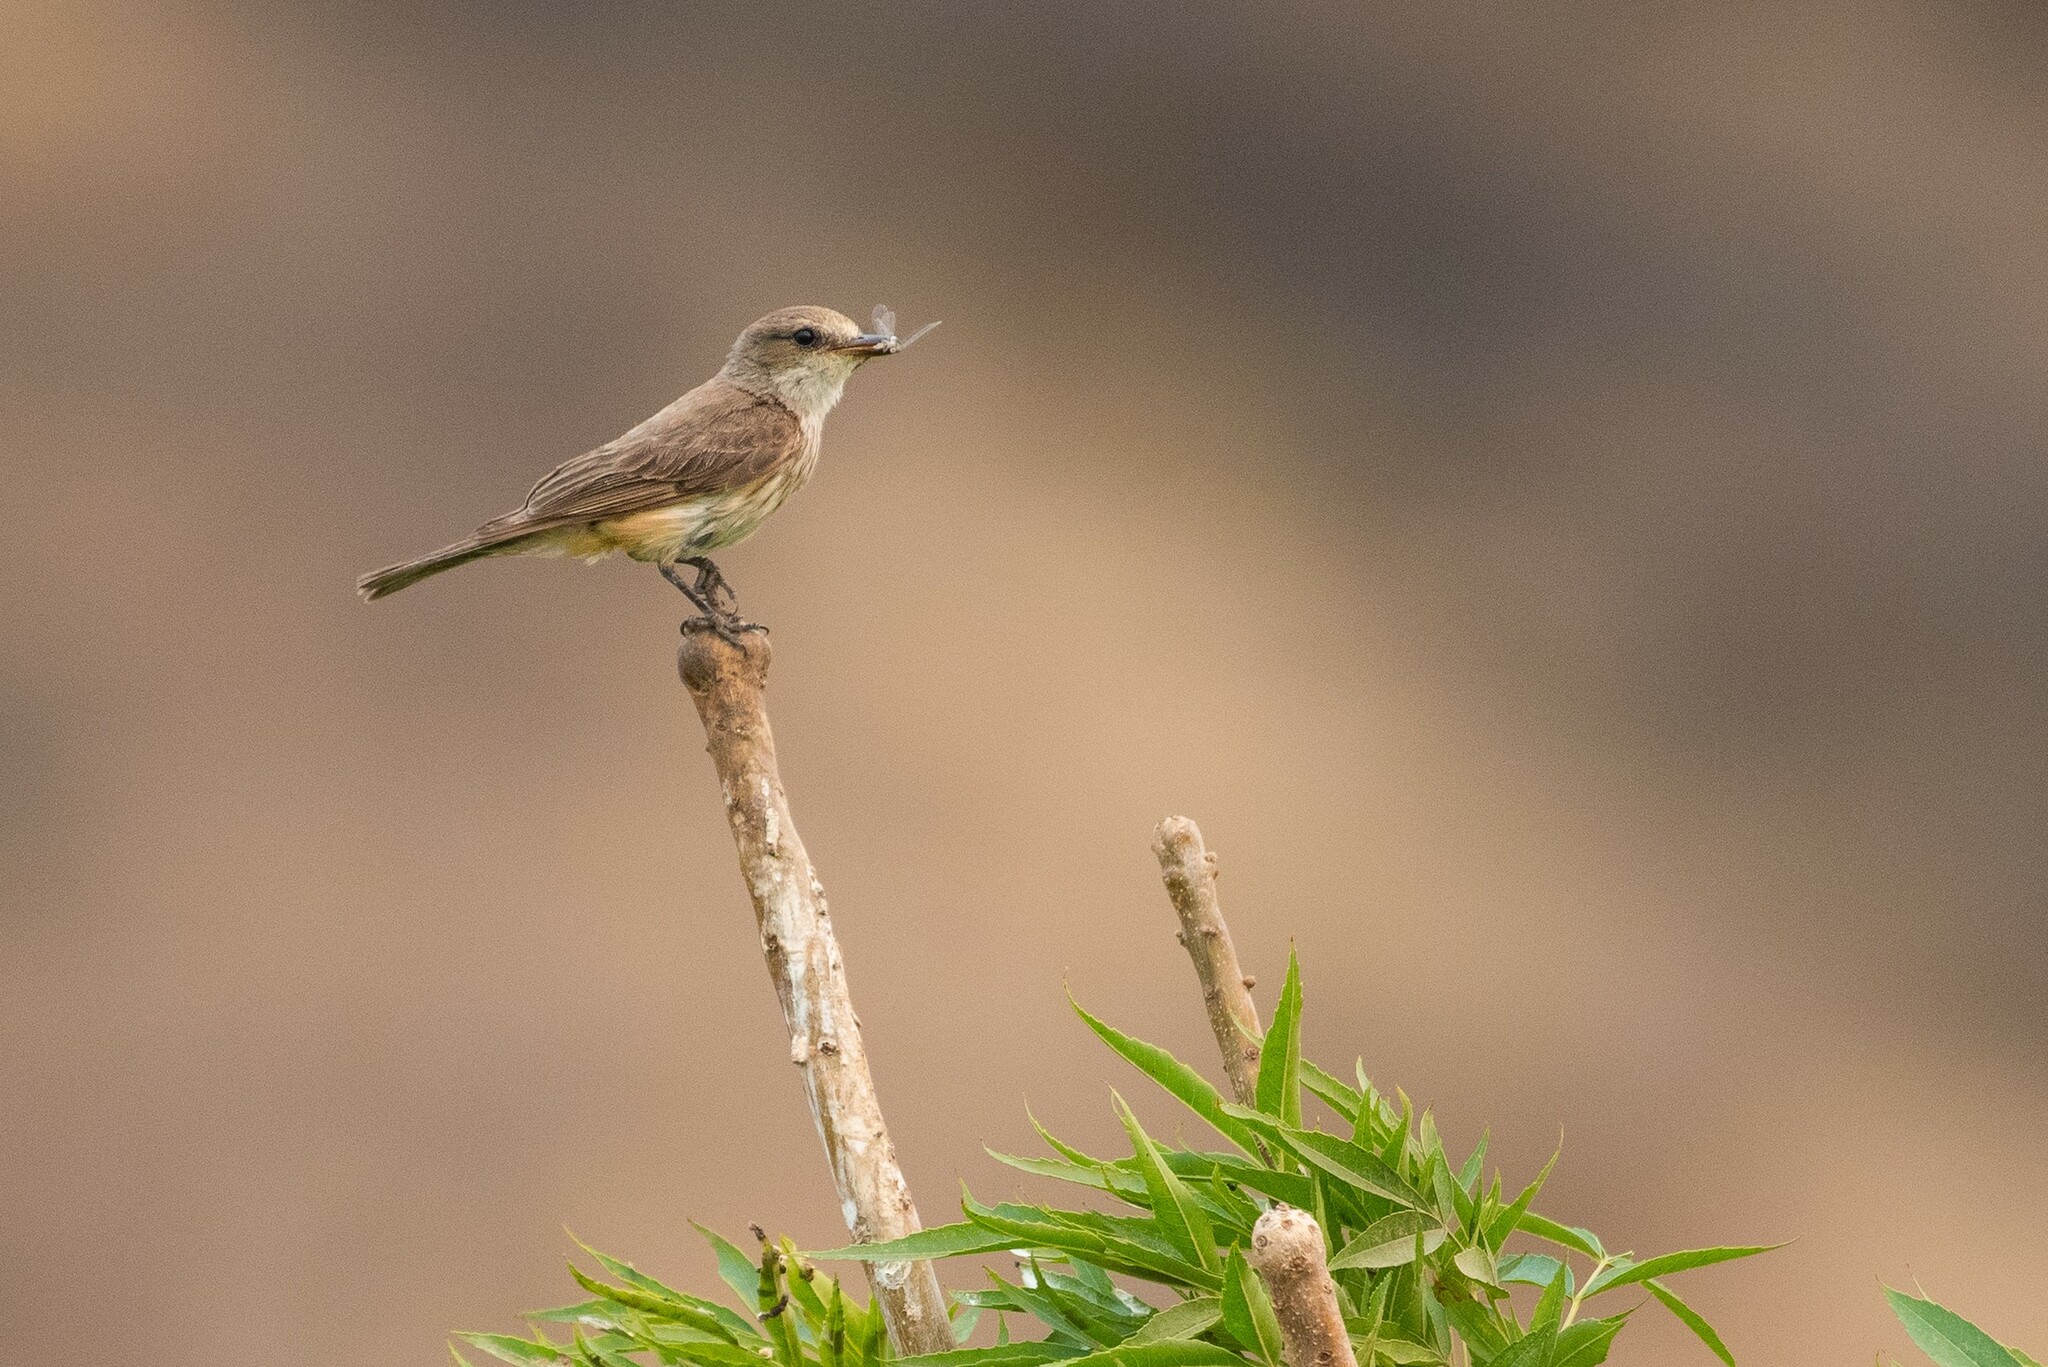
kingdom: Animalia
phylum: Chordata
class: Aves
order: Passeriformes
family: Tyrannidae
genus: Pyrocephalus
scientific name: Pyrocephalus rubinus
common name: Vermilion flycatcher
